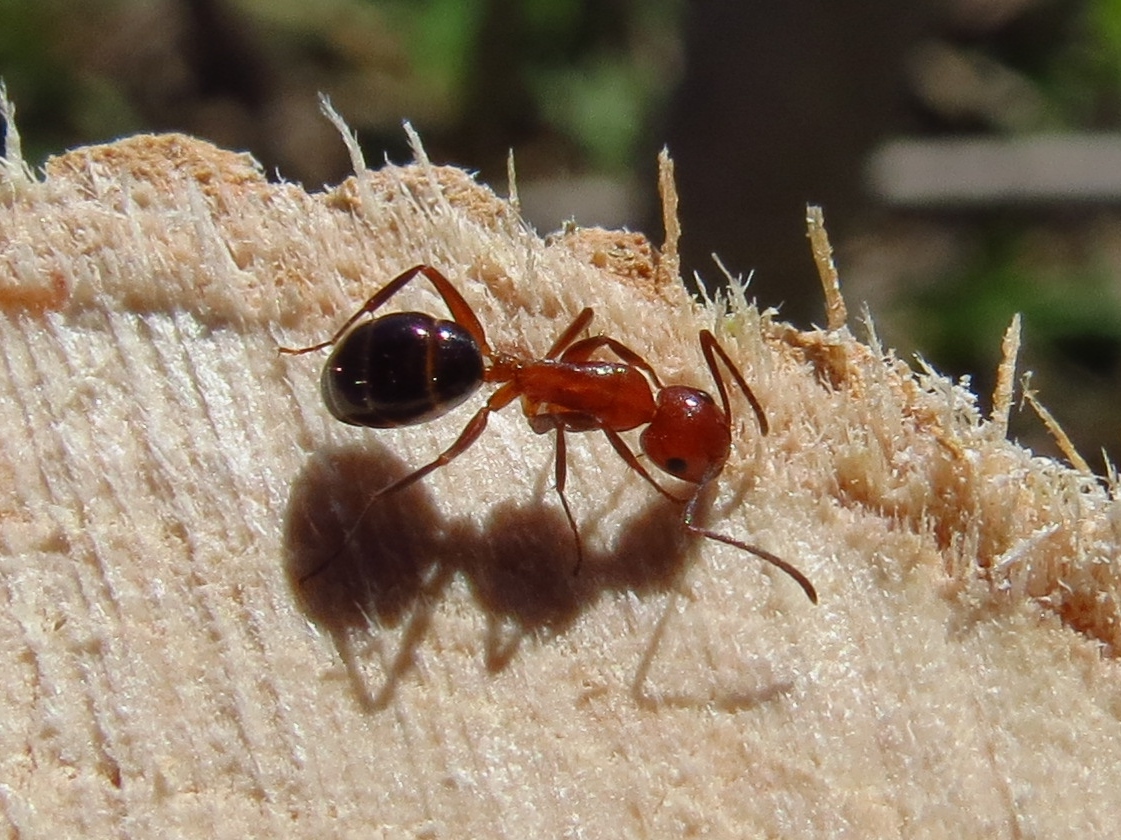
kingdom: Animalia
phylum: Arthropoda
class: Insecta
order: Hymenoptera
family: Formicidae
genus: Camponotus
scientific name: Camponotus decipiens
